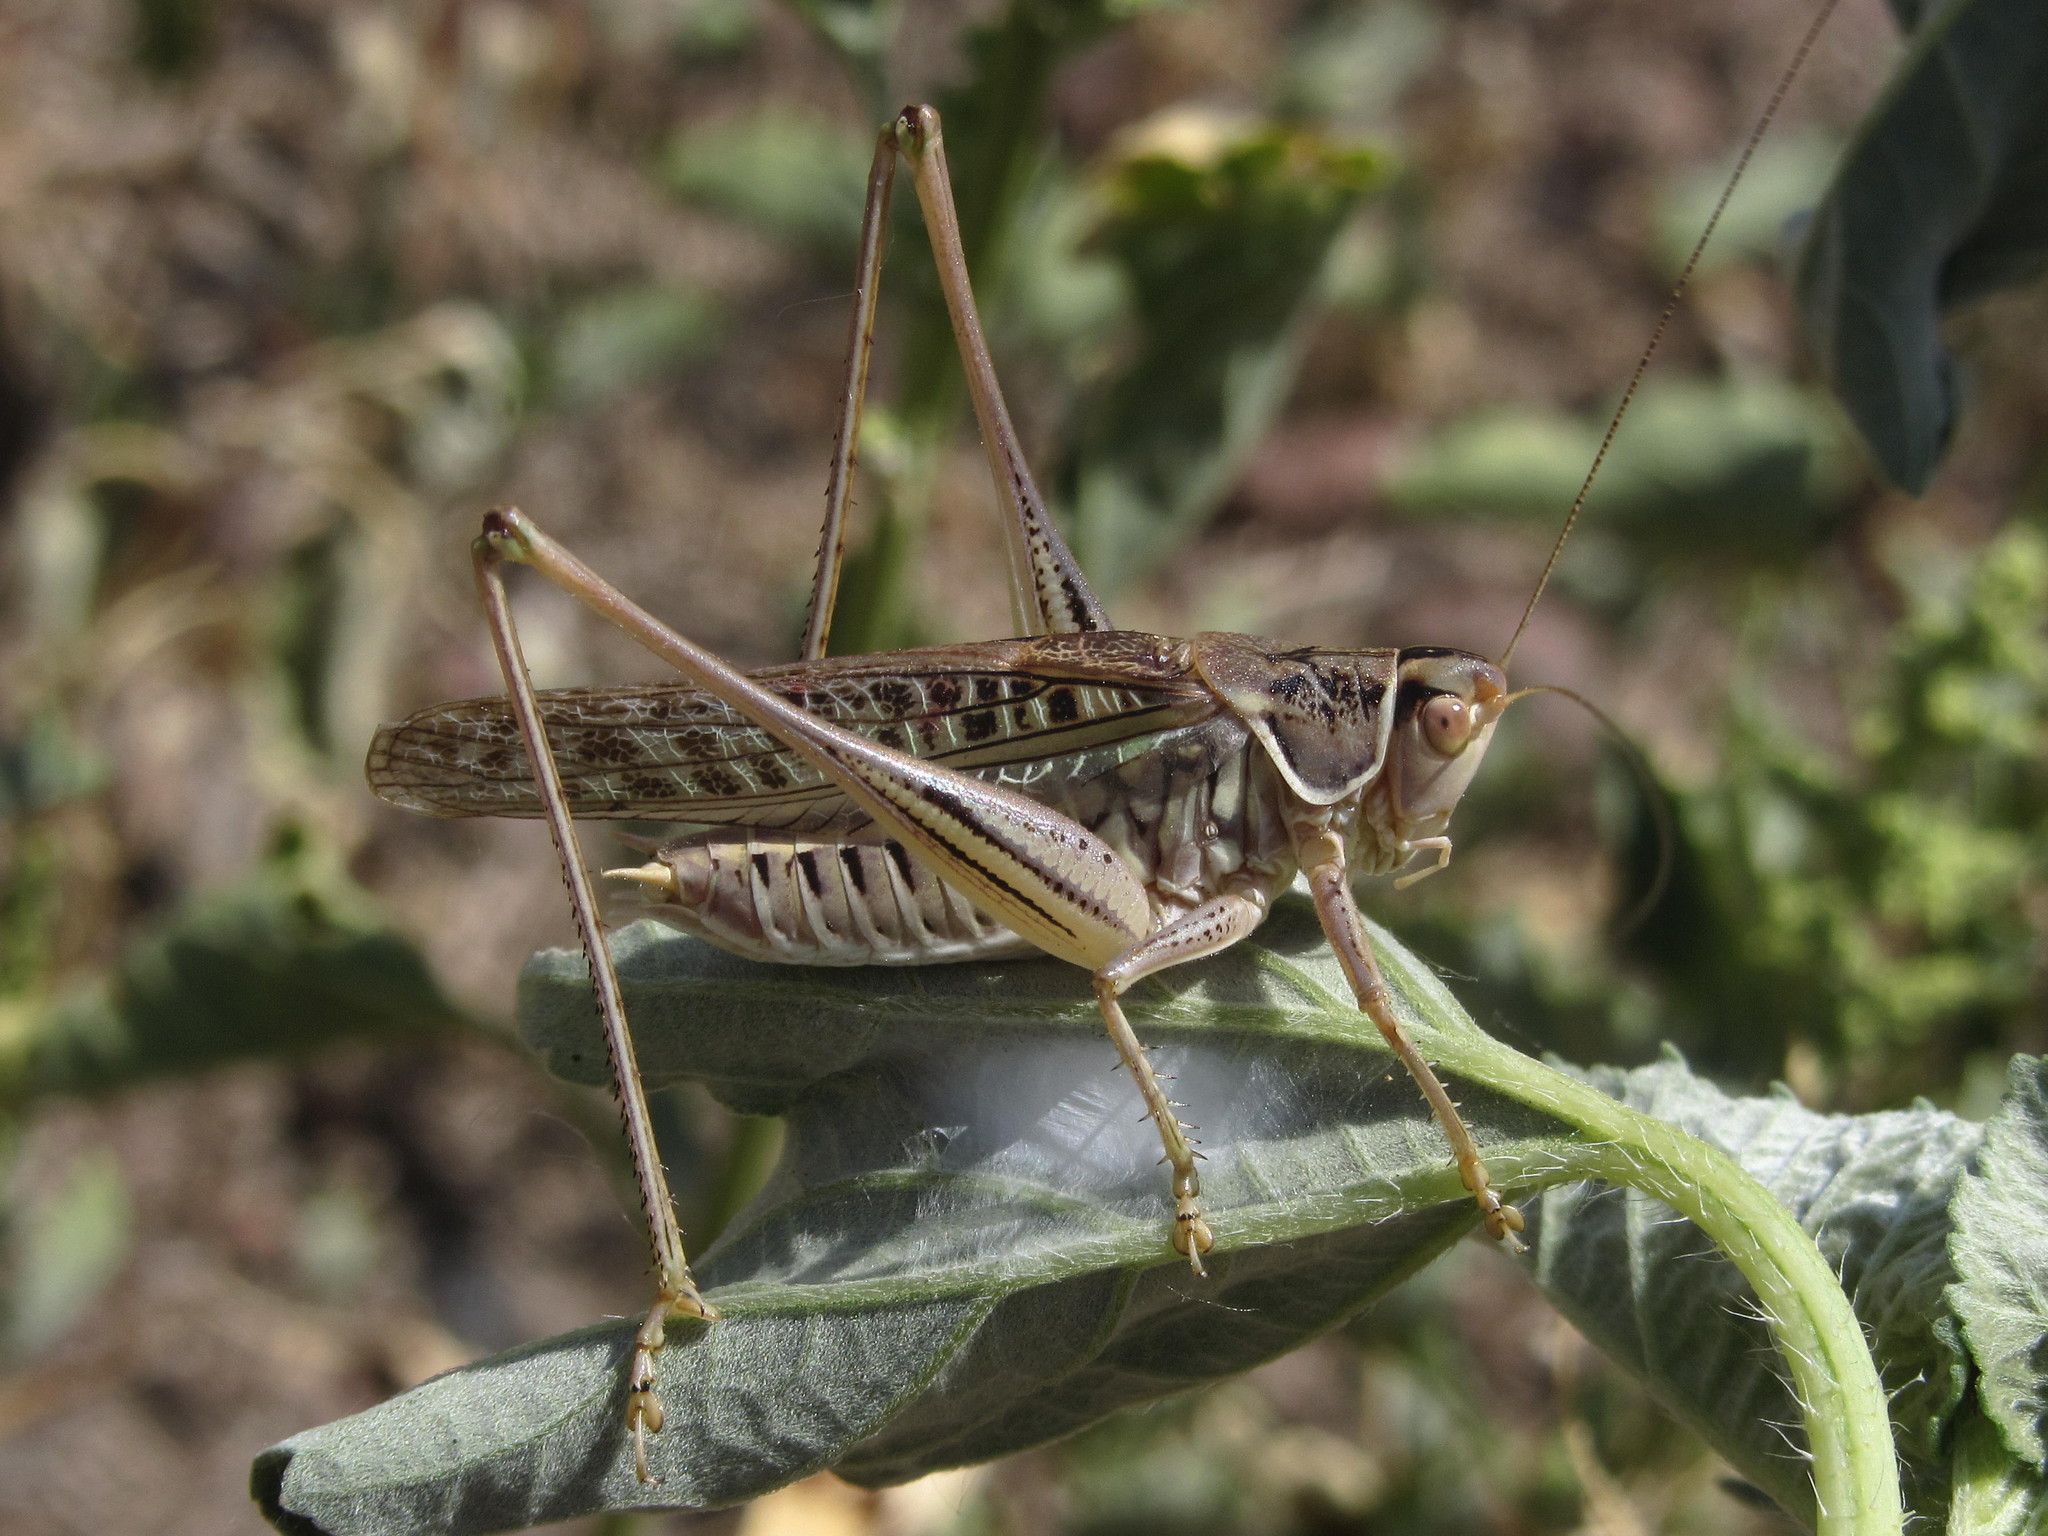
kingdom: Animalia
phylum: Arthropoda
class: Insecta
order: Orthoptera
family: Tettigoniidae
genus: Gampsocleis
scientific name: Gampsocleis glabra
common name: Heath bushcricket
